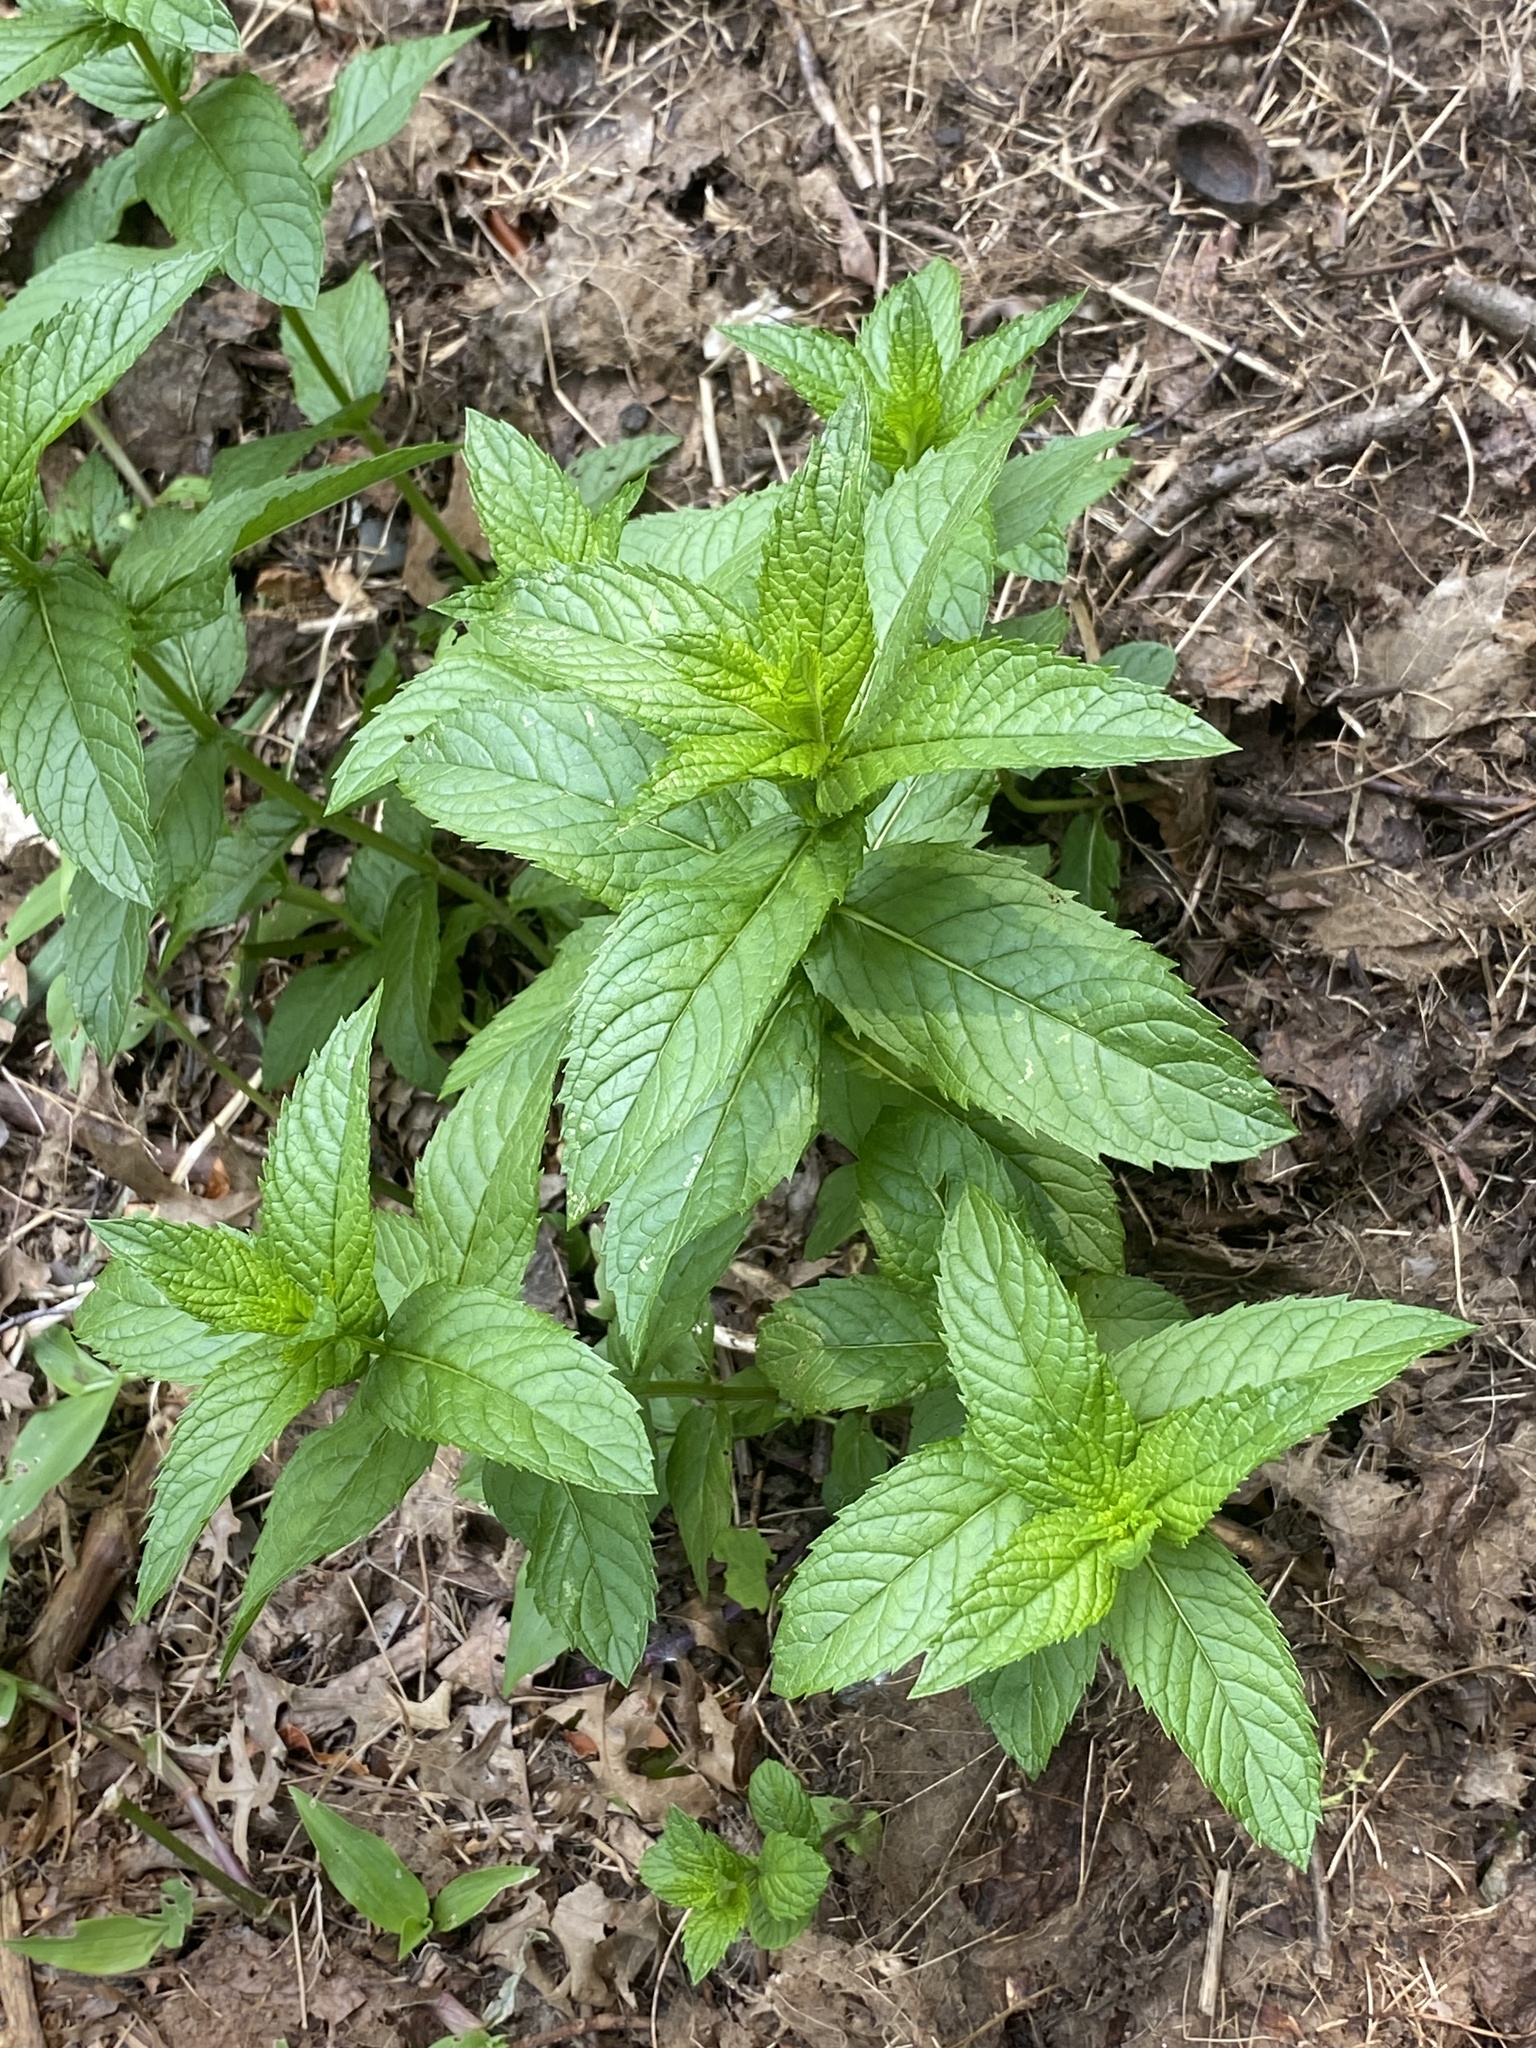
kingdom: Plantae
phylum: Tracheophyta
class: Magnoliopsida
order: Lamiales
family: Lamiaceae
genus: Mentha
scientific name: Mentha spicata
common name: Spearmint
